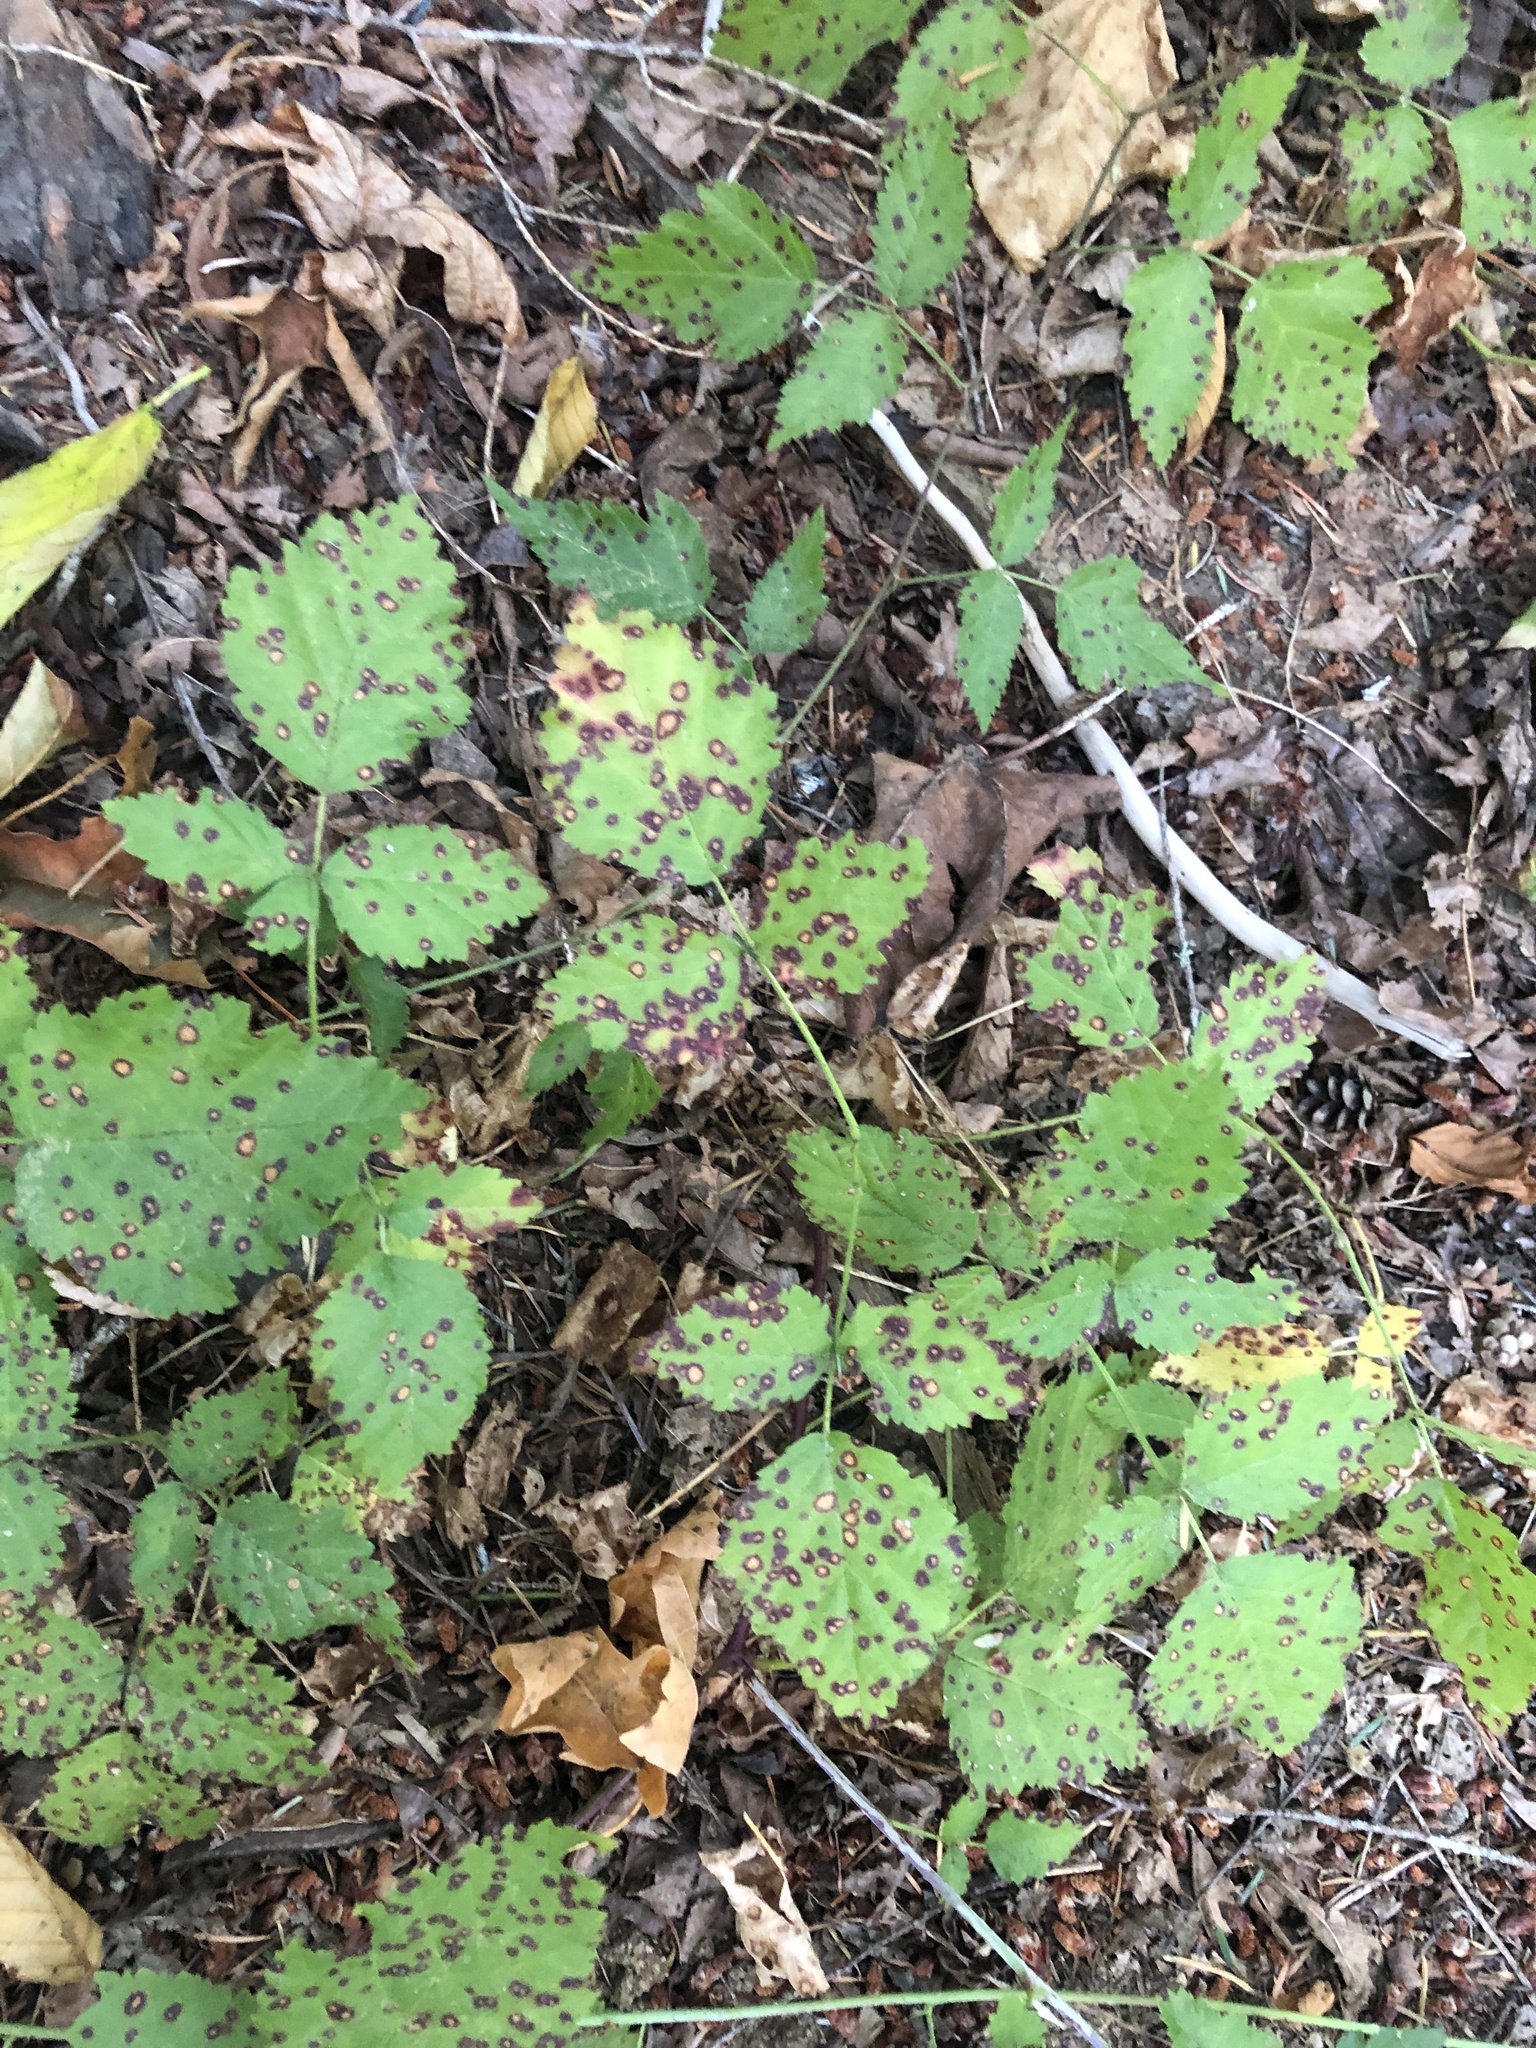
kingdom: Plantae
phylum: Tracheophyta
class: Magnoliopsida
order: Rosales
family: Rosaceae
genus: Rubus
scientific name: Rubus ursinus
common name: Pacific blackberry
